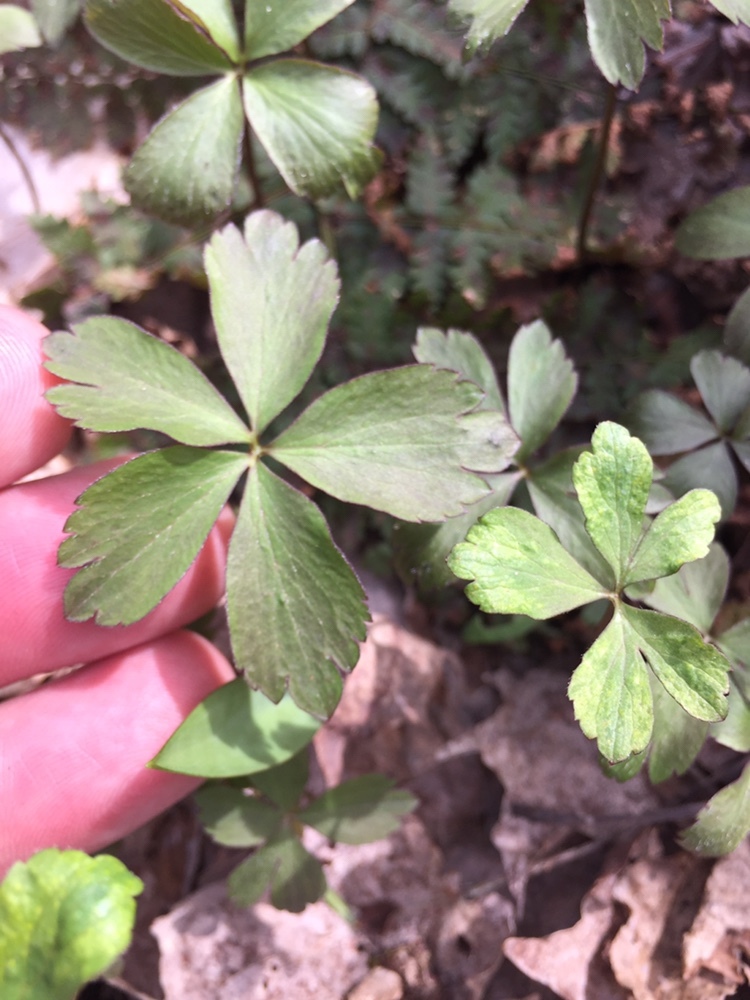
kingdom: Plantae
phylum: Tracheophyta
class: Magnoliopsida
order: Ranunculales
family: Ranunculaceae
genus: Anemone
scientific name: Anemone quinquefolia
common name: Wood anemone
